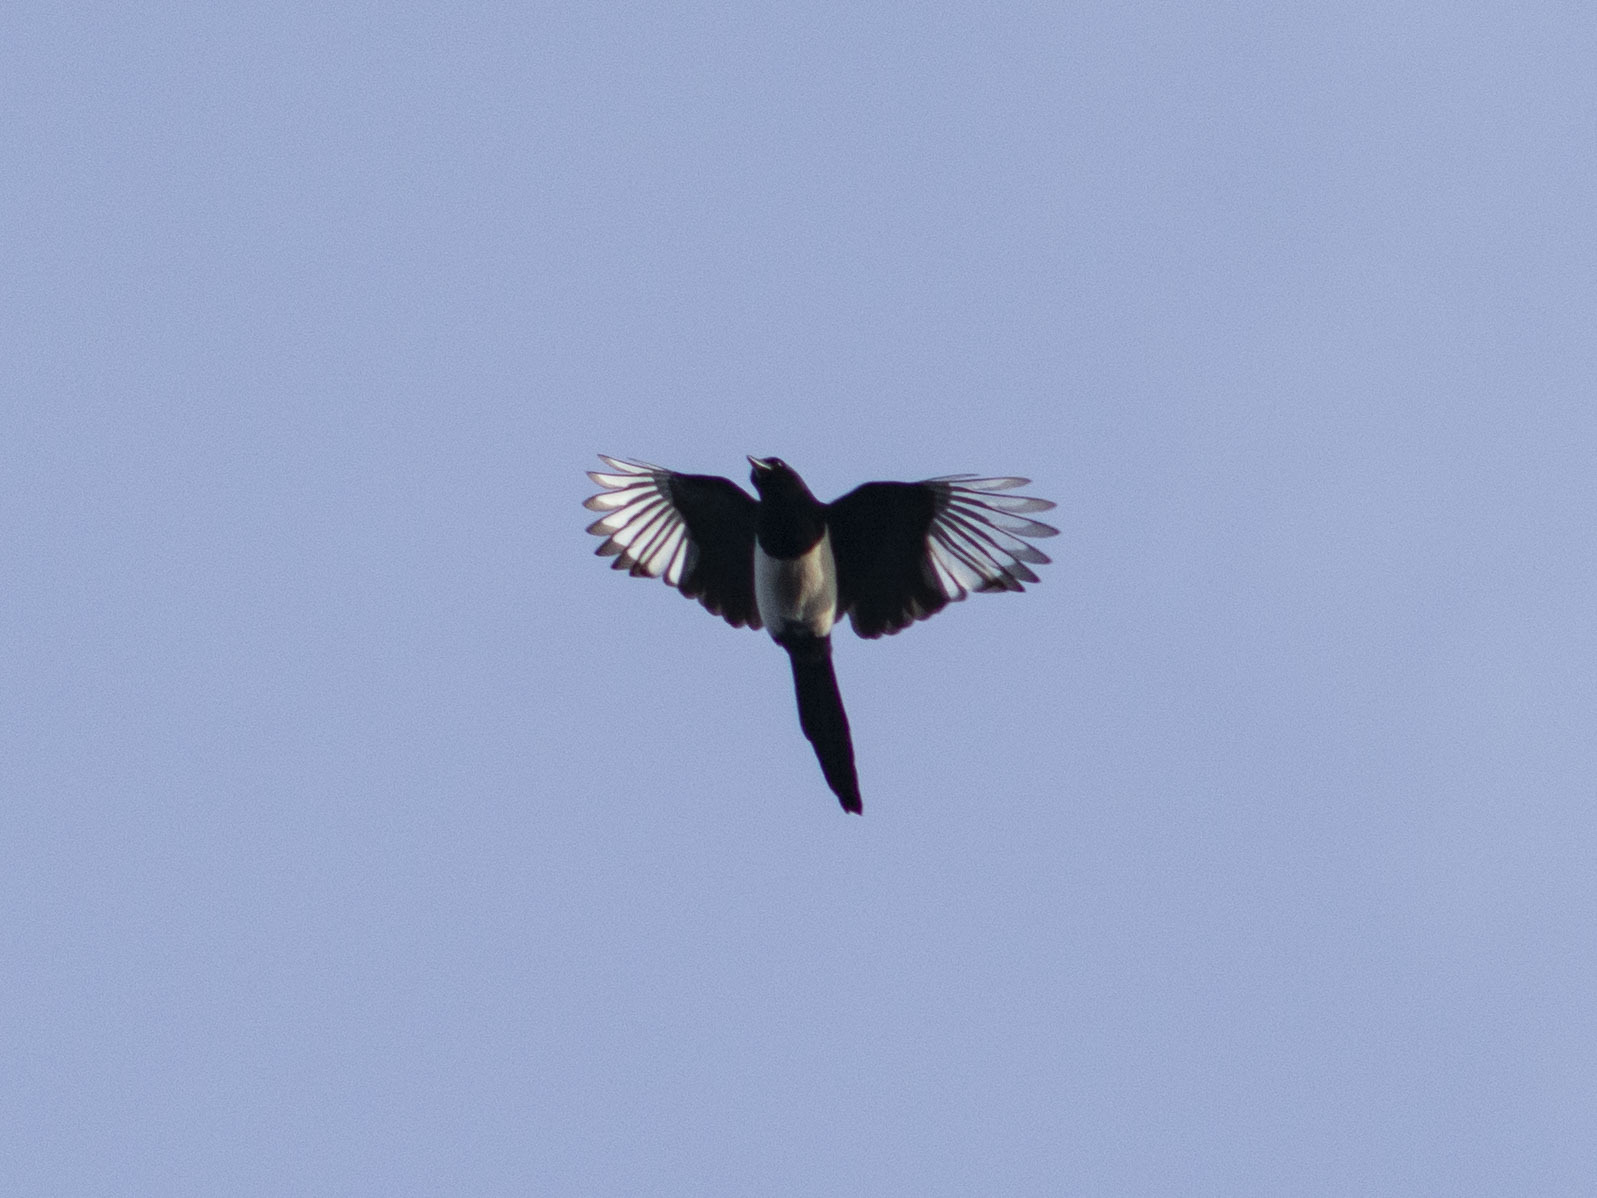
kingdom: Animalia
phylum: Chordata
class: Aves
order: Passeriformes
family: Corvidae
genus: Pica
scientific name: Pica pica
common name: Eurasian magpie
